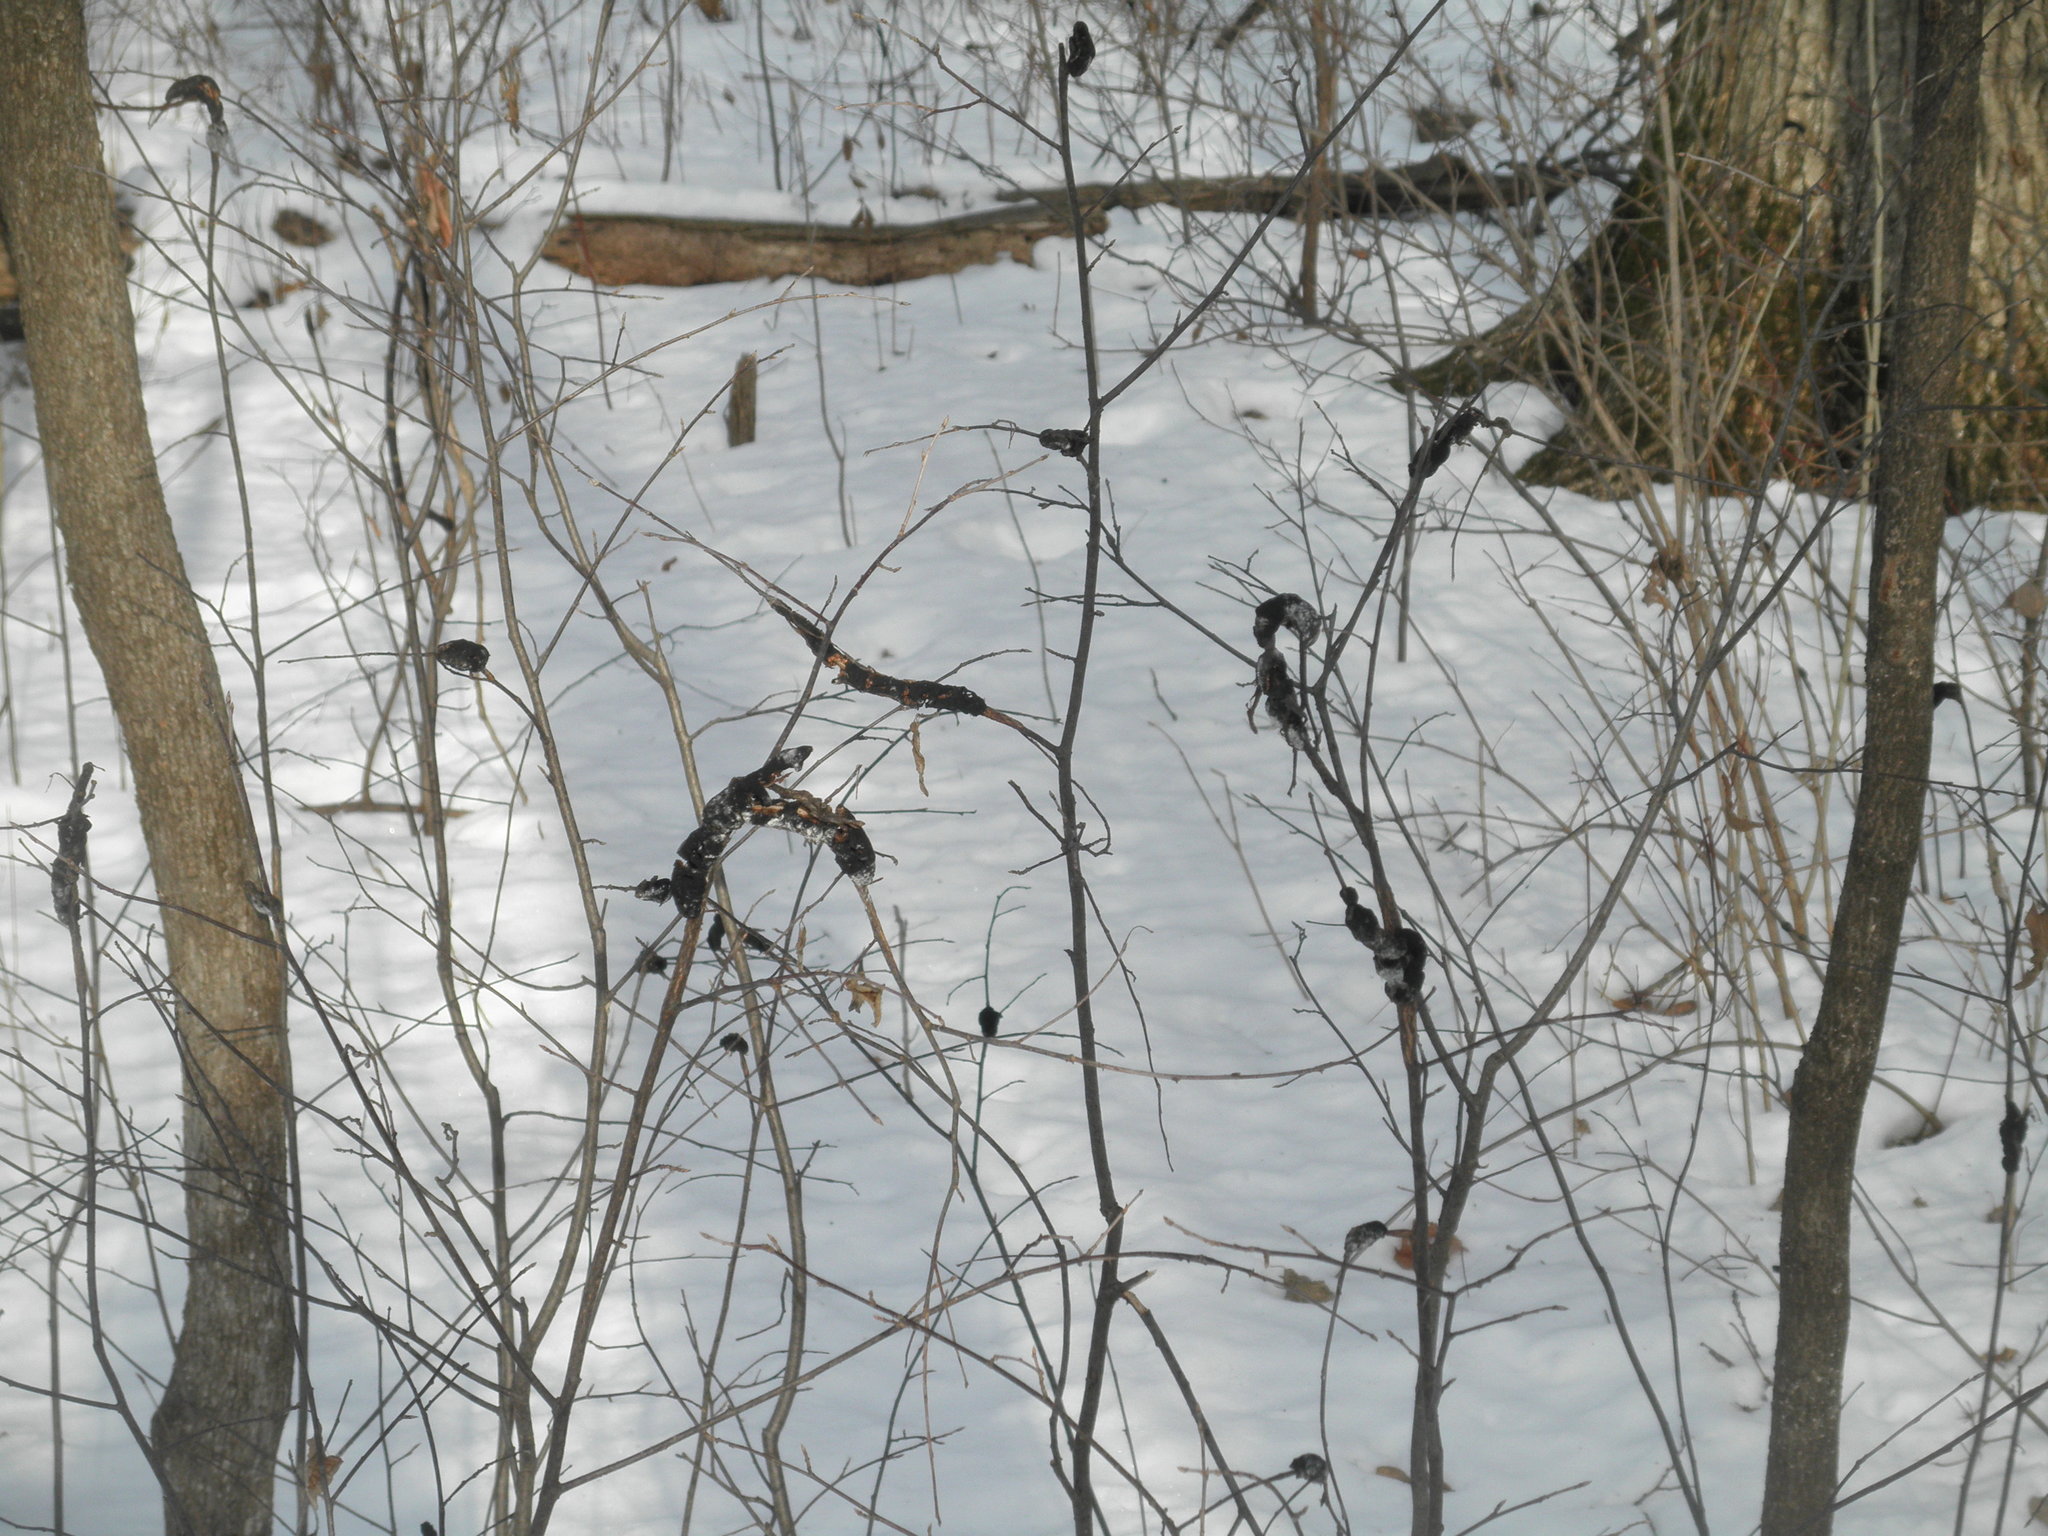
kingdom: Fungi
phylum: Ascomycota
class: Dothideomycetes
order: Venturiales
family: Venturiaceae
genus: Apiosporina
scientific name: Apiosporina morbosa
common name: Black knot
